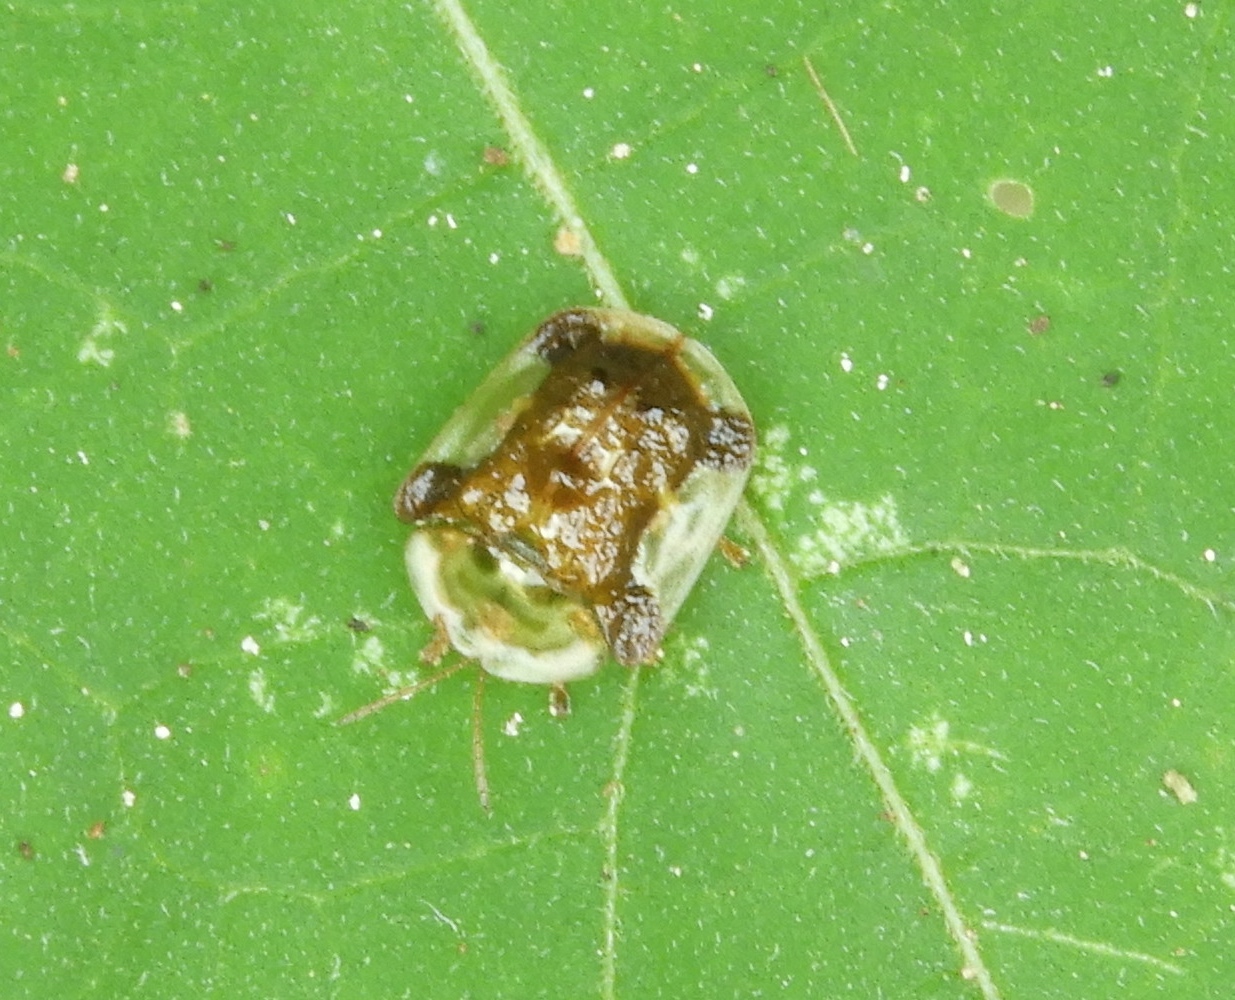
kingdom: Animalia
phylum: Arthropoda
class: Insecta
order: Coleoptera
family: Chrysomelidae
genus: Helocassis
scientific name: Helocassis testudinaria
